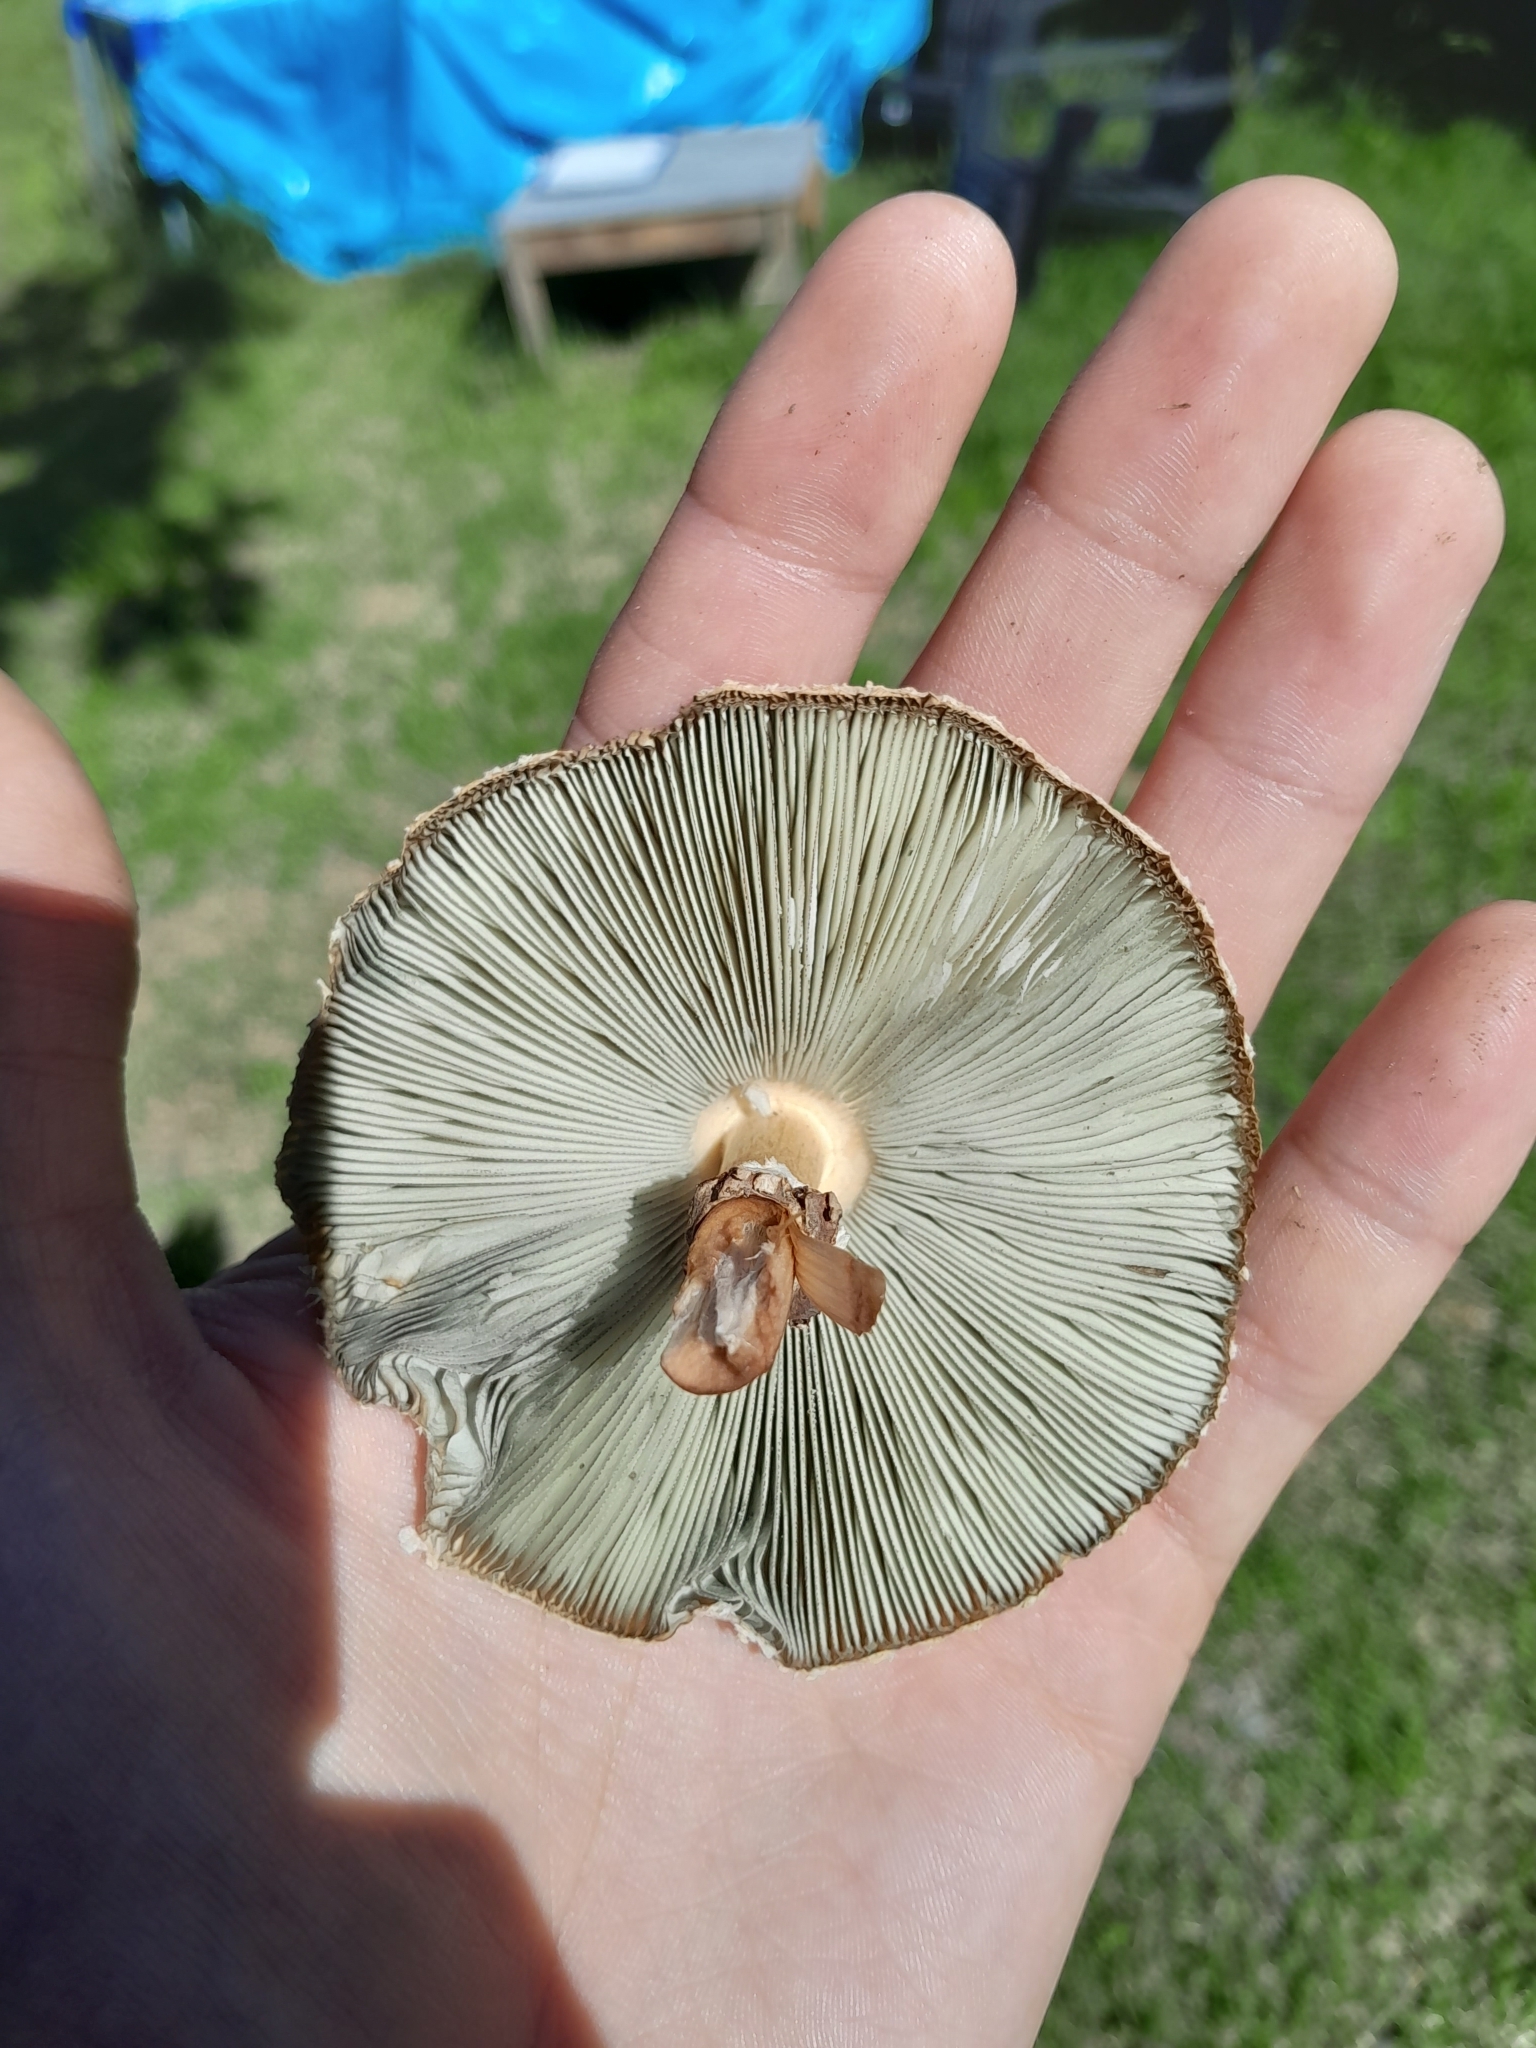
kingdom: Fungi
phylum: Basidiomycota
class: Agaricomycetes
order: Agaricales
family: Agaricaceae
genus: Chlorophyllum
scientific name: Chlorophyllum molybdites
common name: False parasol
